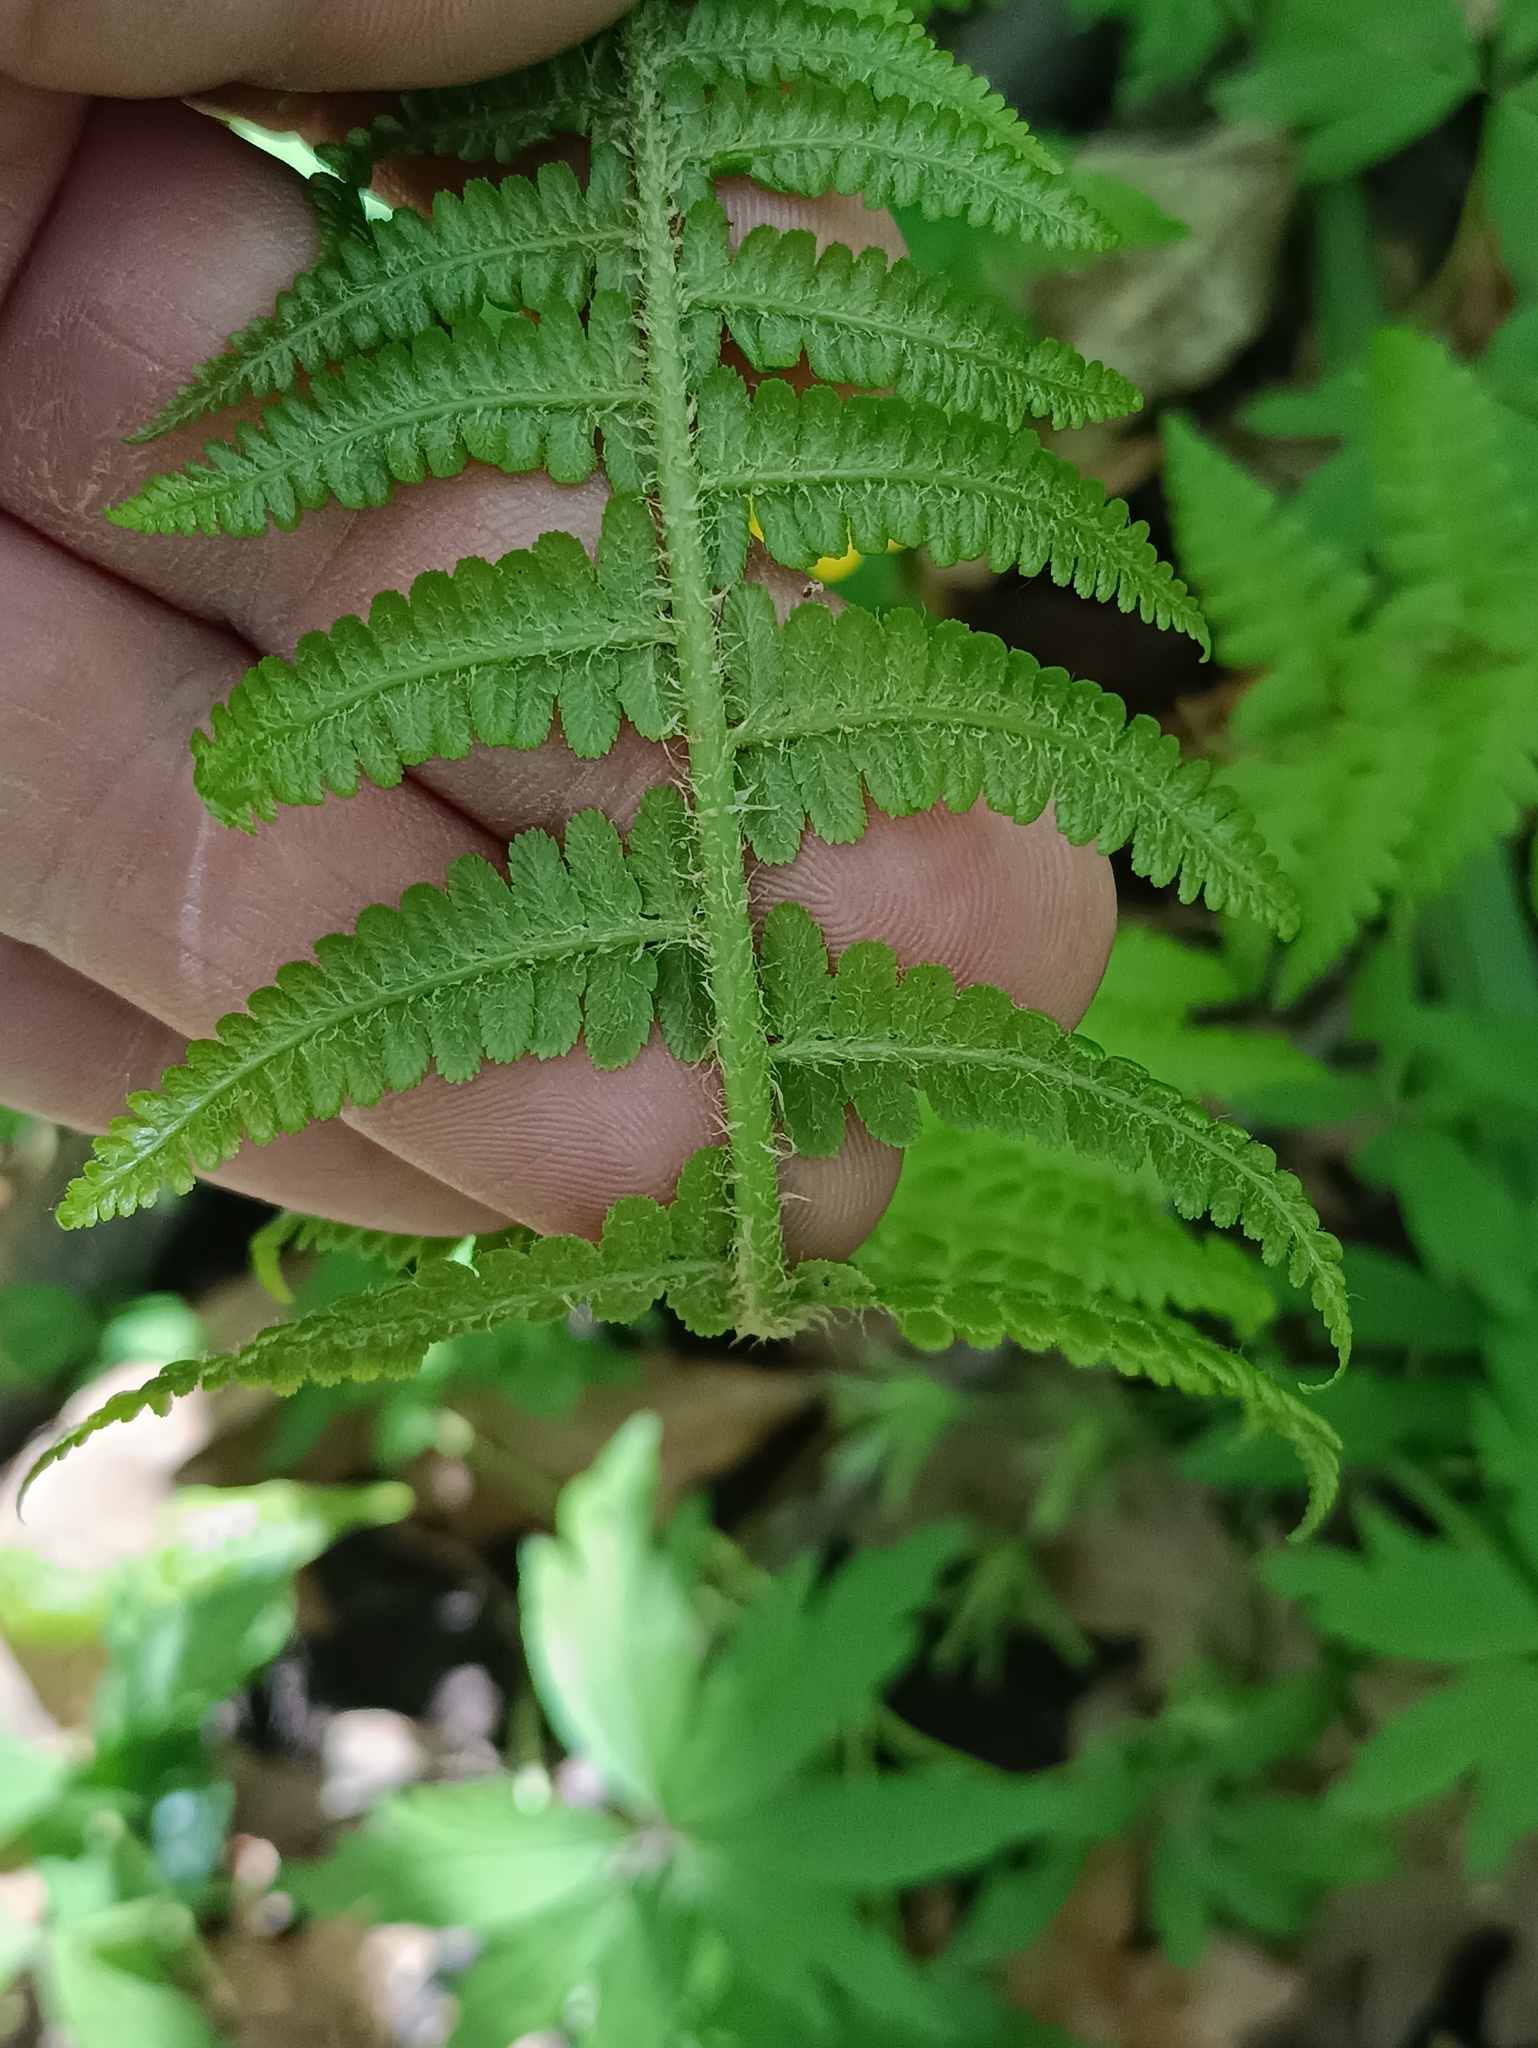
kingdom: Plantae
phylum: Tracheophyta
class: Polypodiopsida
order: Polypodiales
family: Dryopteridaceae
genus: Dryopteris
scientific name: Dryopteris filix-mas
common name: Male fern
